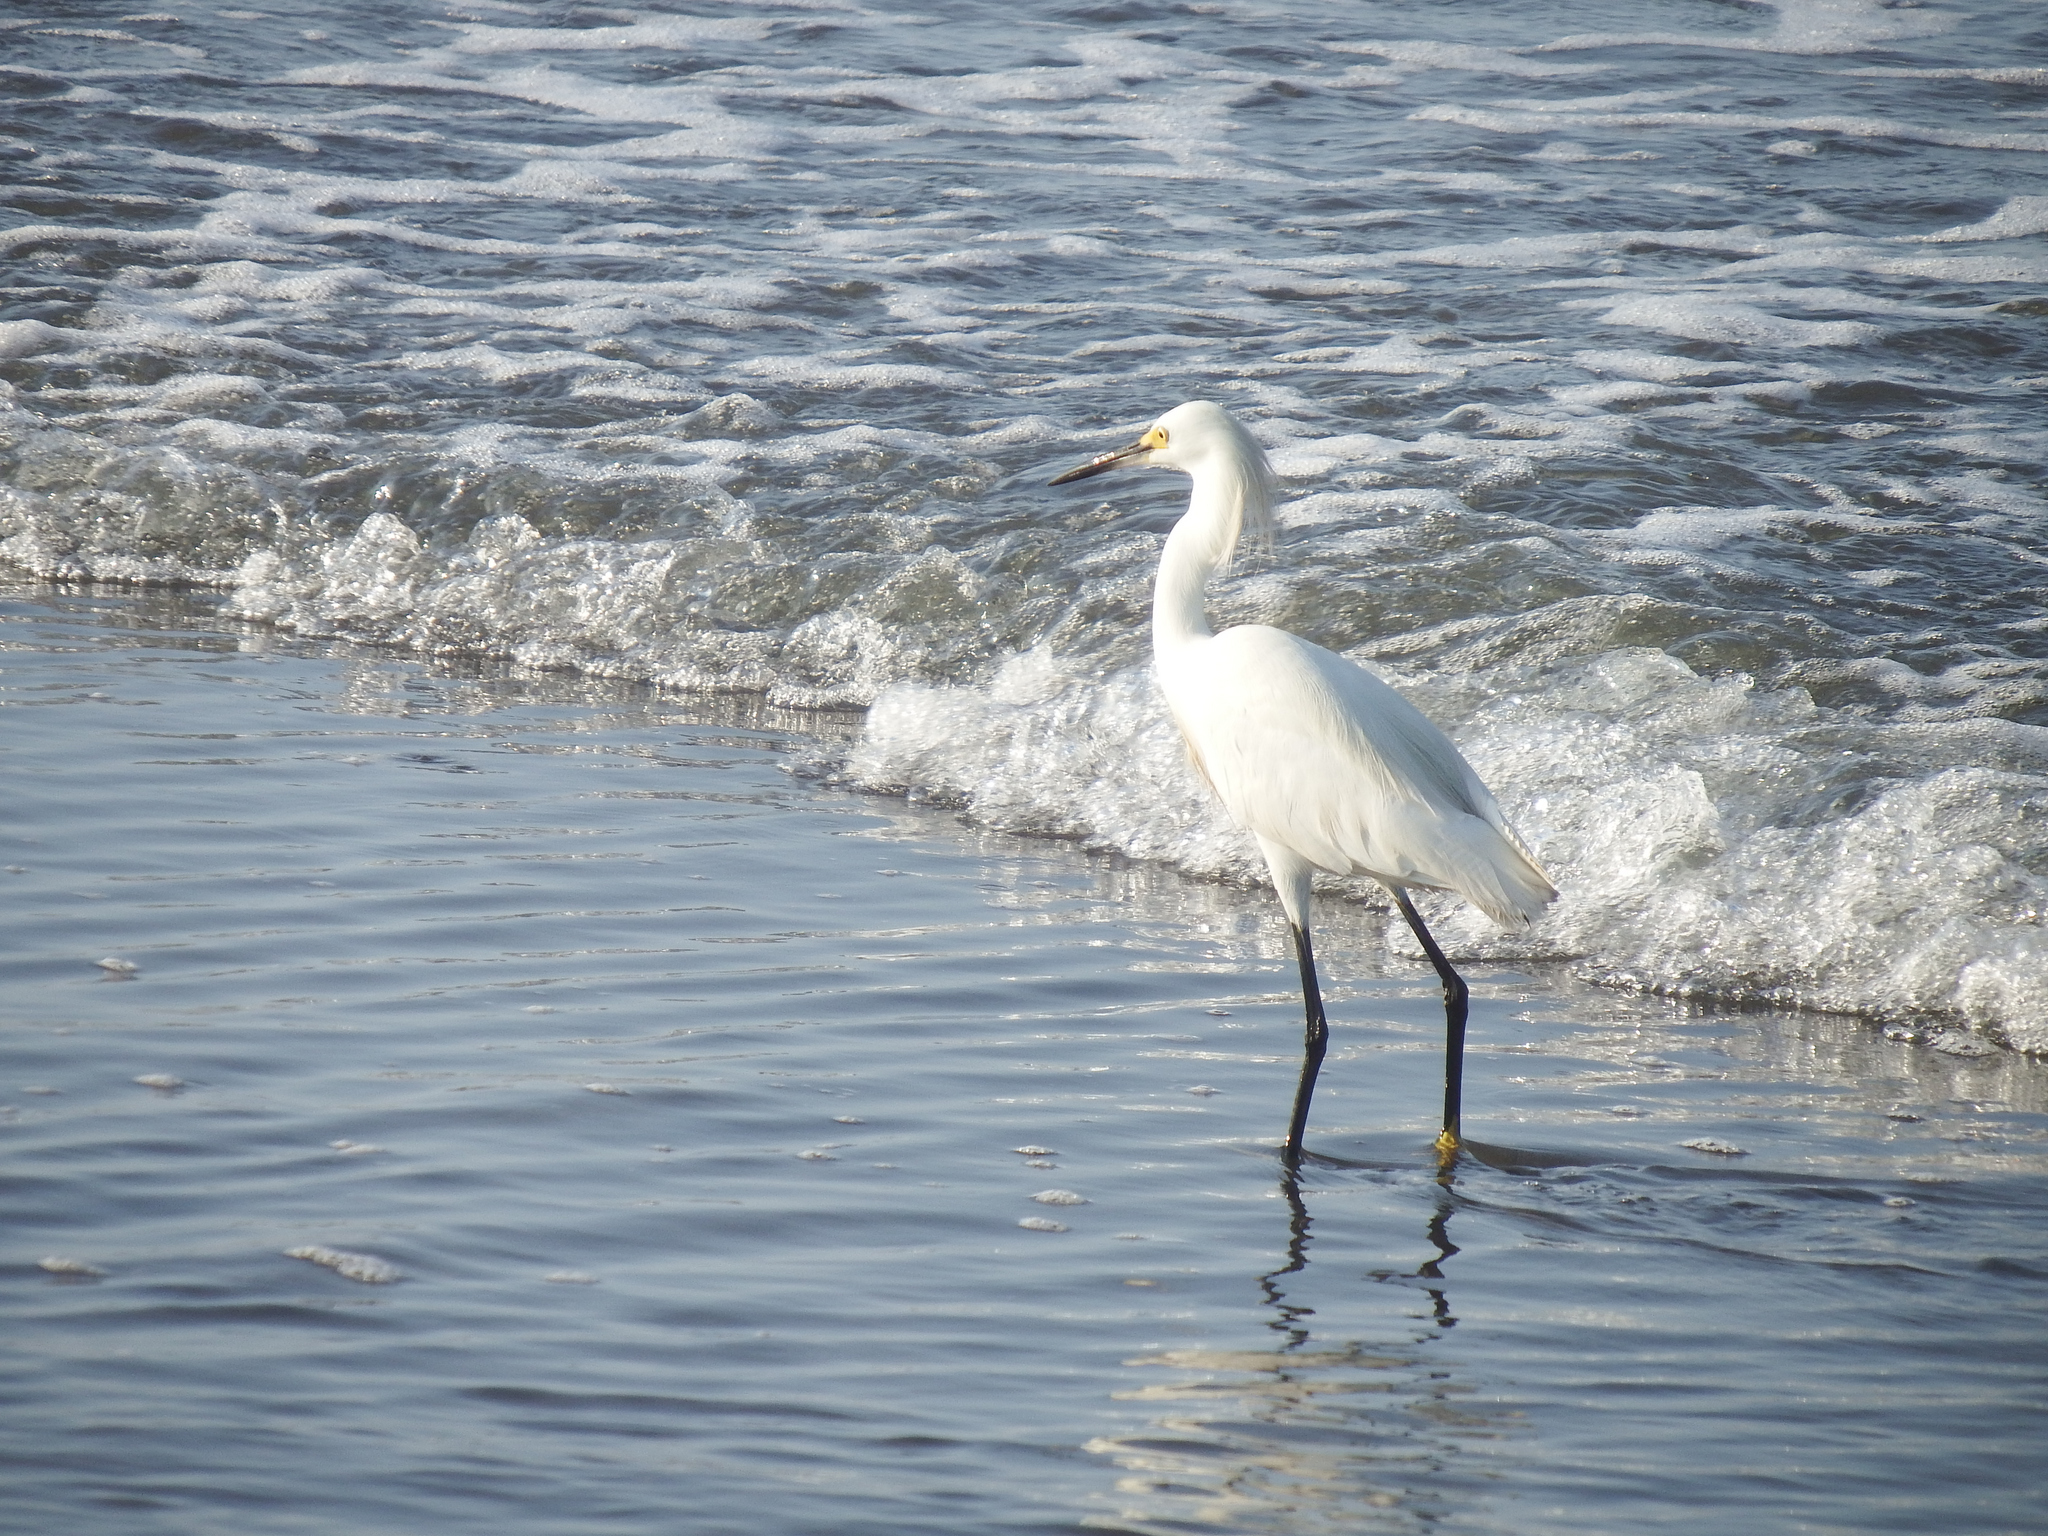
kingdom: Animalia
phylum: Chordata
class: Aves
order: Pelecaniformes
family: Ardeidae
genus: Egretta
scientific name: Egretta thula
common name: Snowy egret
